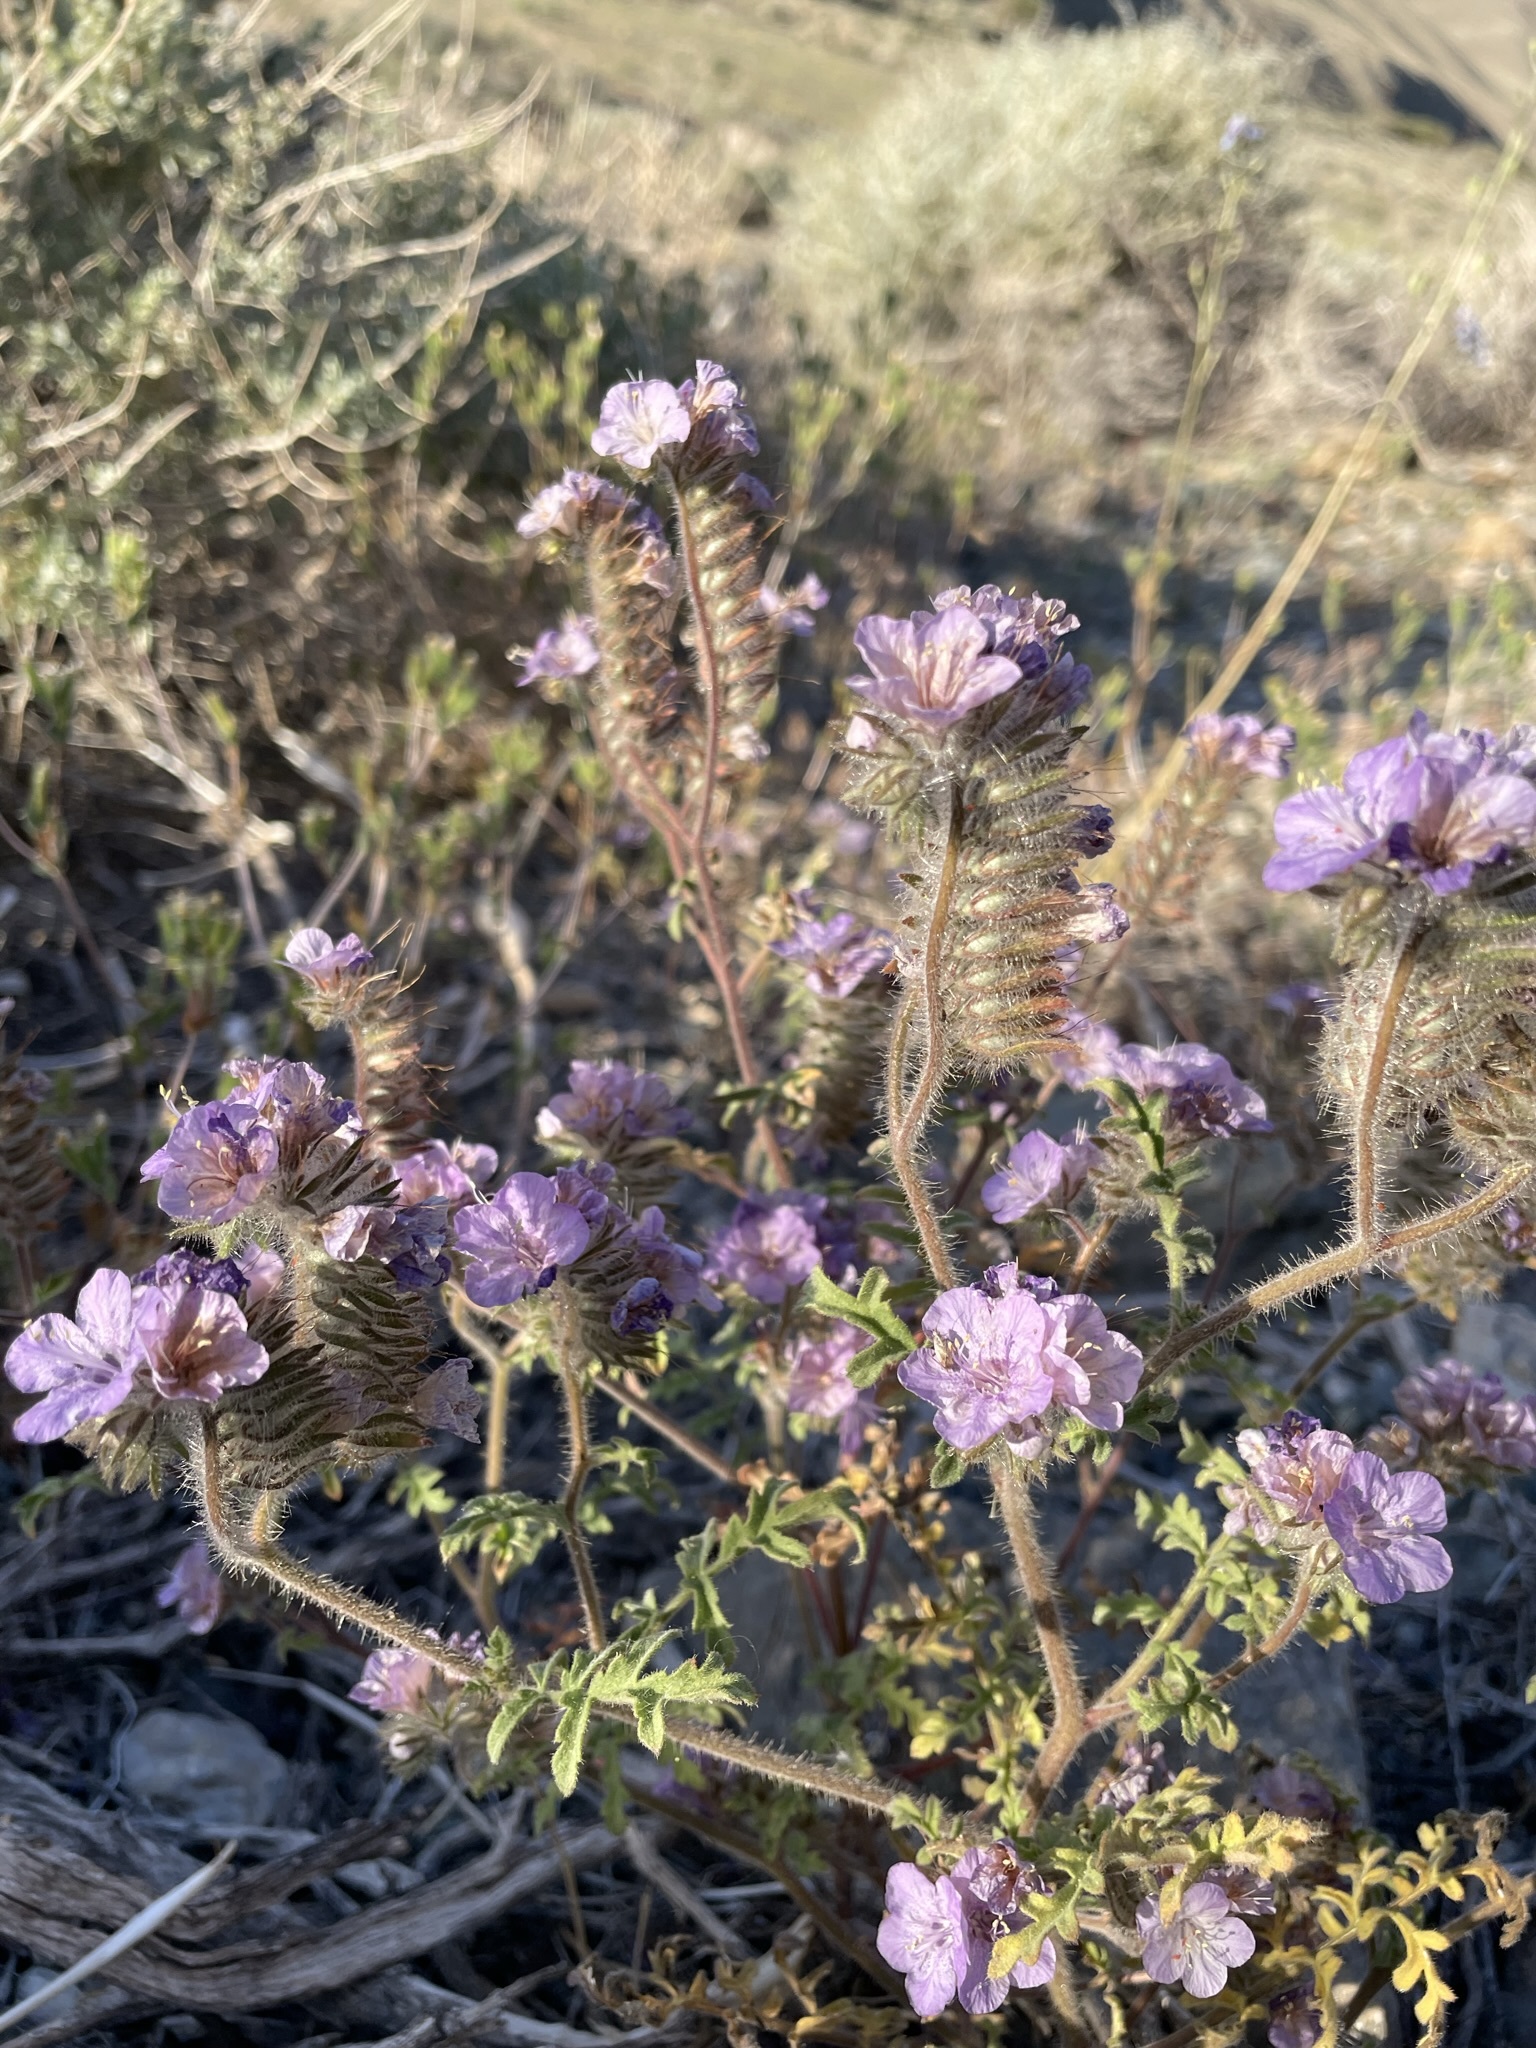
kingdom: Plantae
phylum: Tracheophyta
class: Magnoliopsida
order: Boraginales
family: Hydrophyllaceae
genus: Phacelia
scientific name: Phacelia vallis-mortae
